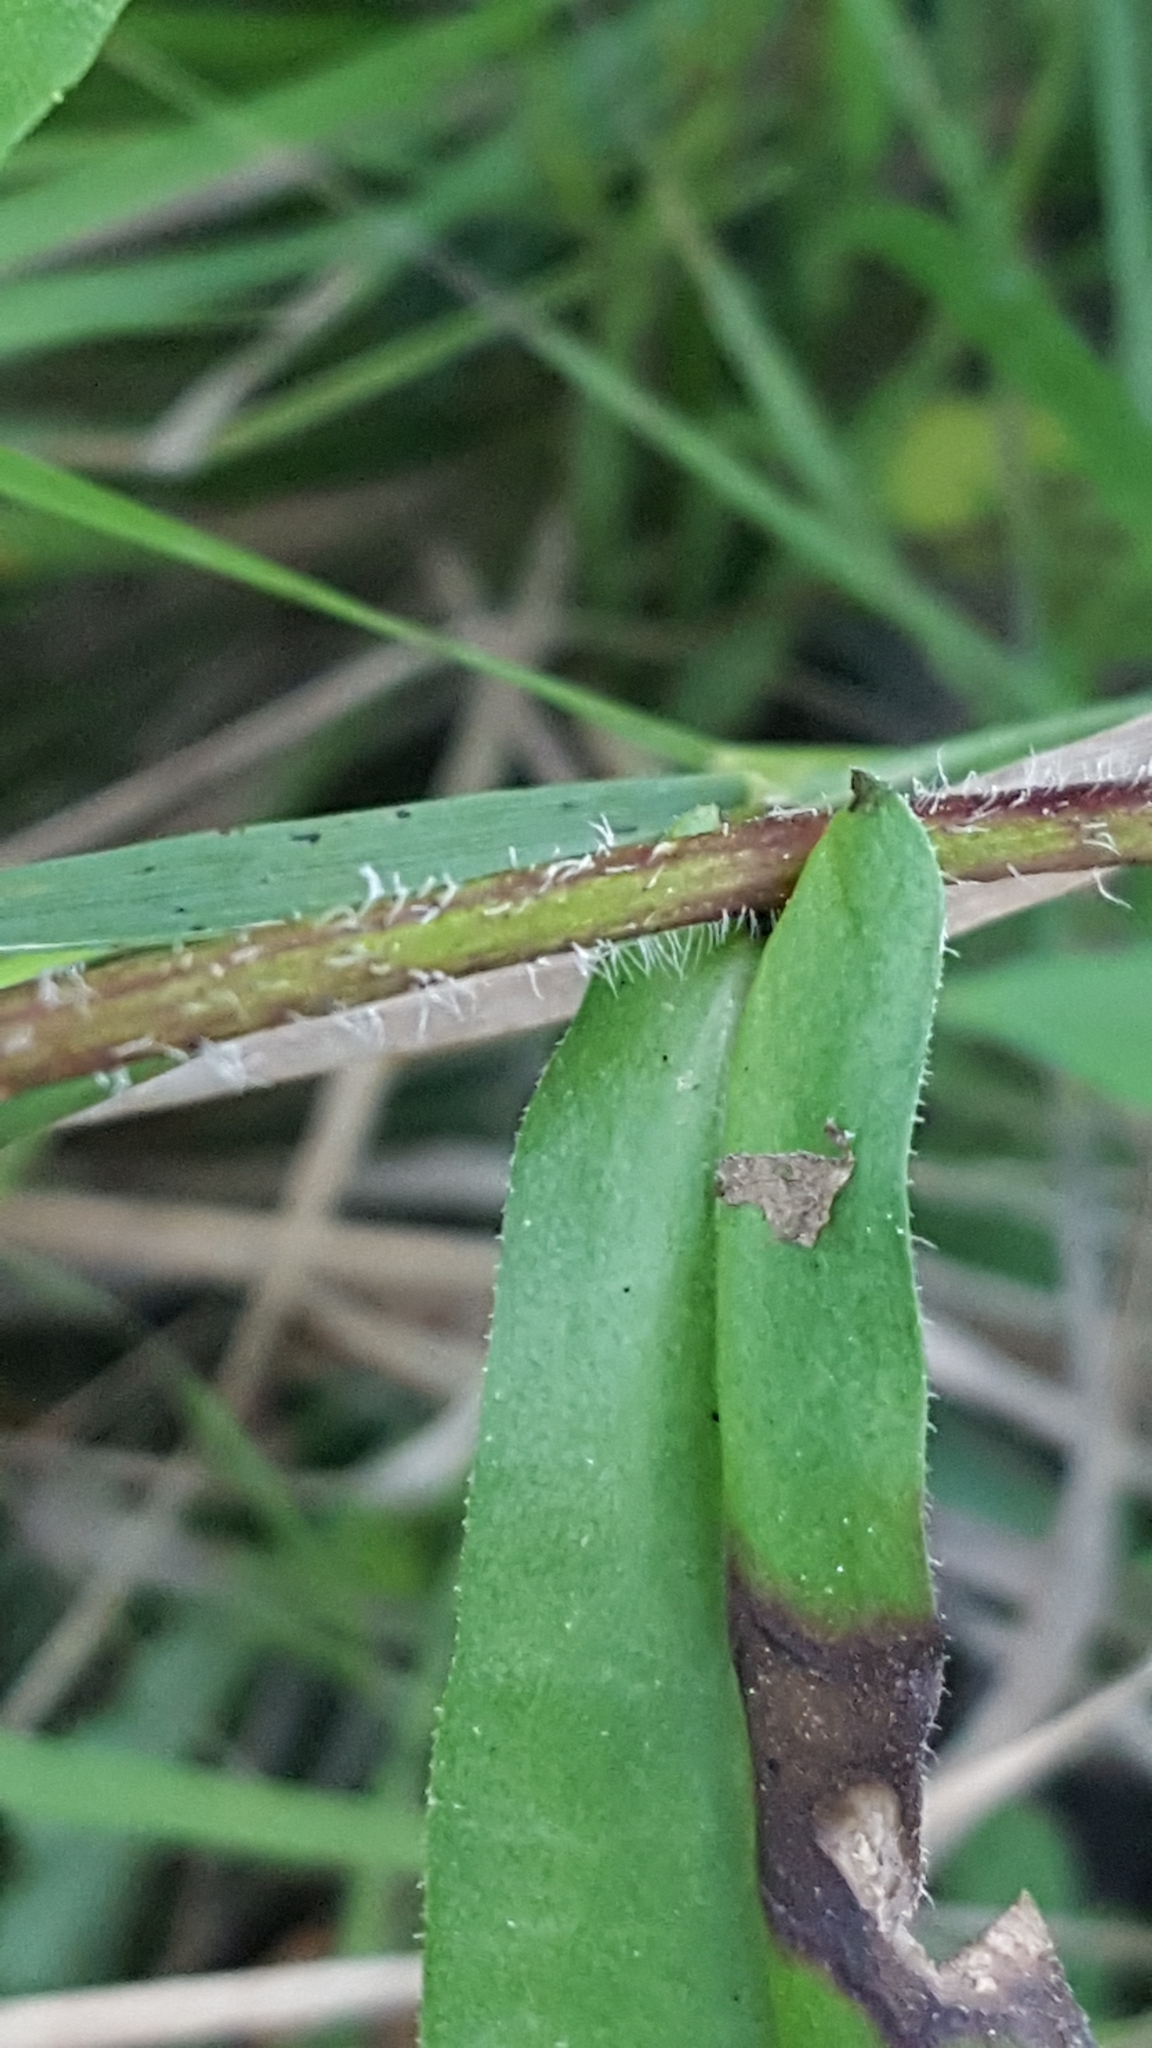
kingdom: Plantae
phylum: Tracheophyta
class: Magnoliopsida
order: Asterales
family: Asteraceae
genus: Symphyotrichum
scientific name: Symphyotrichum puniceum
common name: Bog aster
